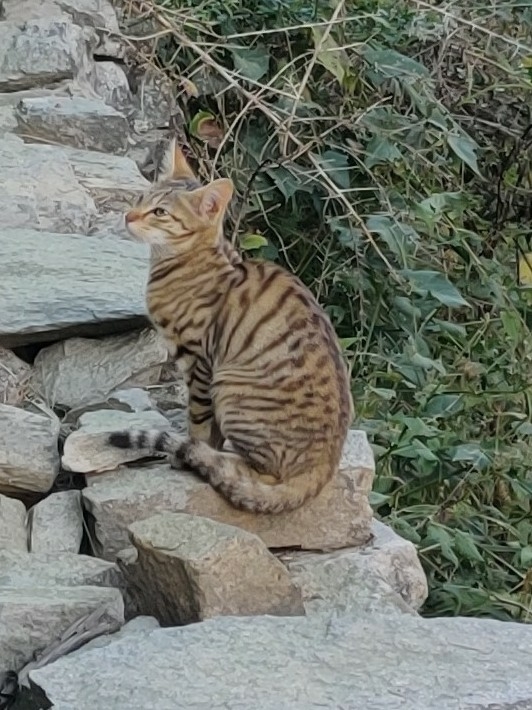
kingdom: Animalia
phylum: Chordata
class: Mammalia
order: Carnivora
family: Felidae
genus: Felis
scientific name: Felis catus
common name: Domestic cat
